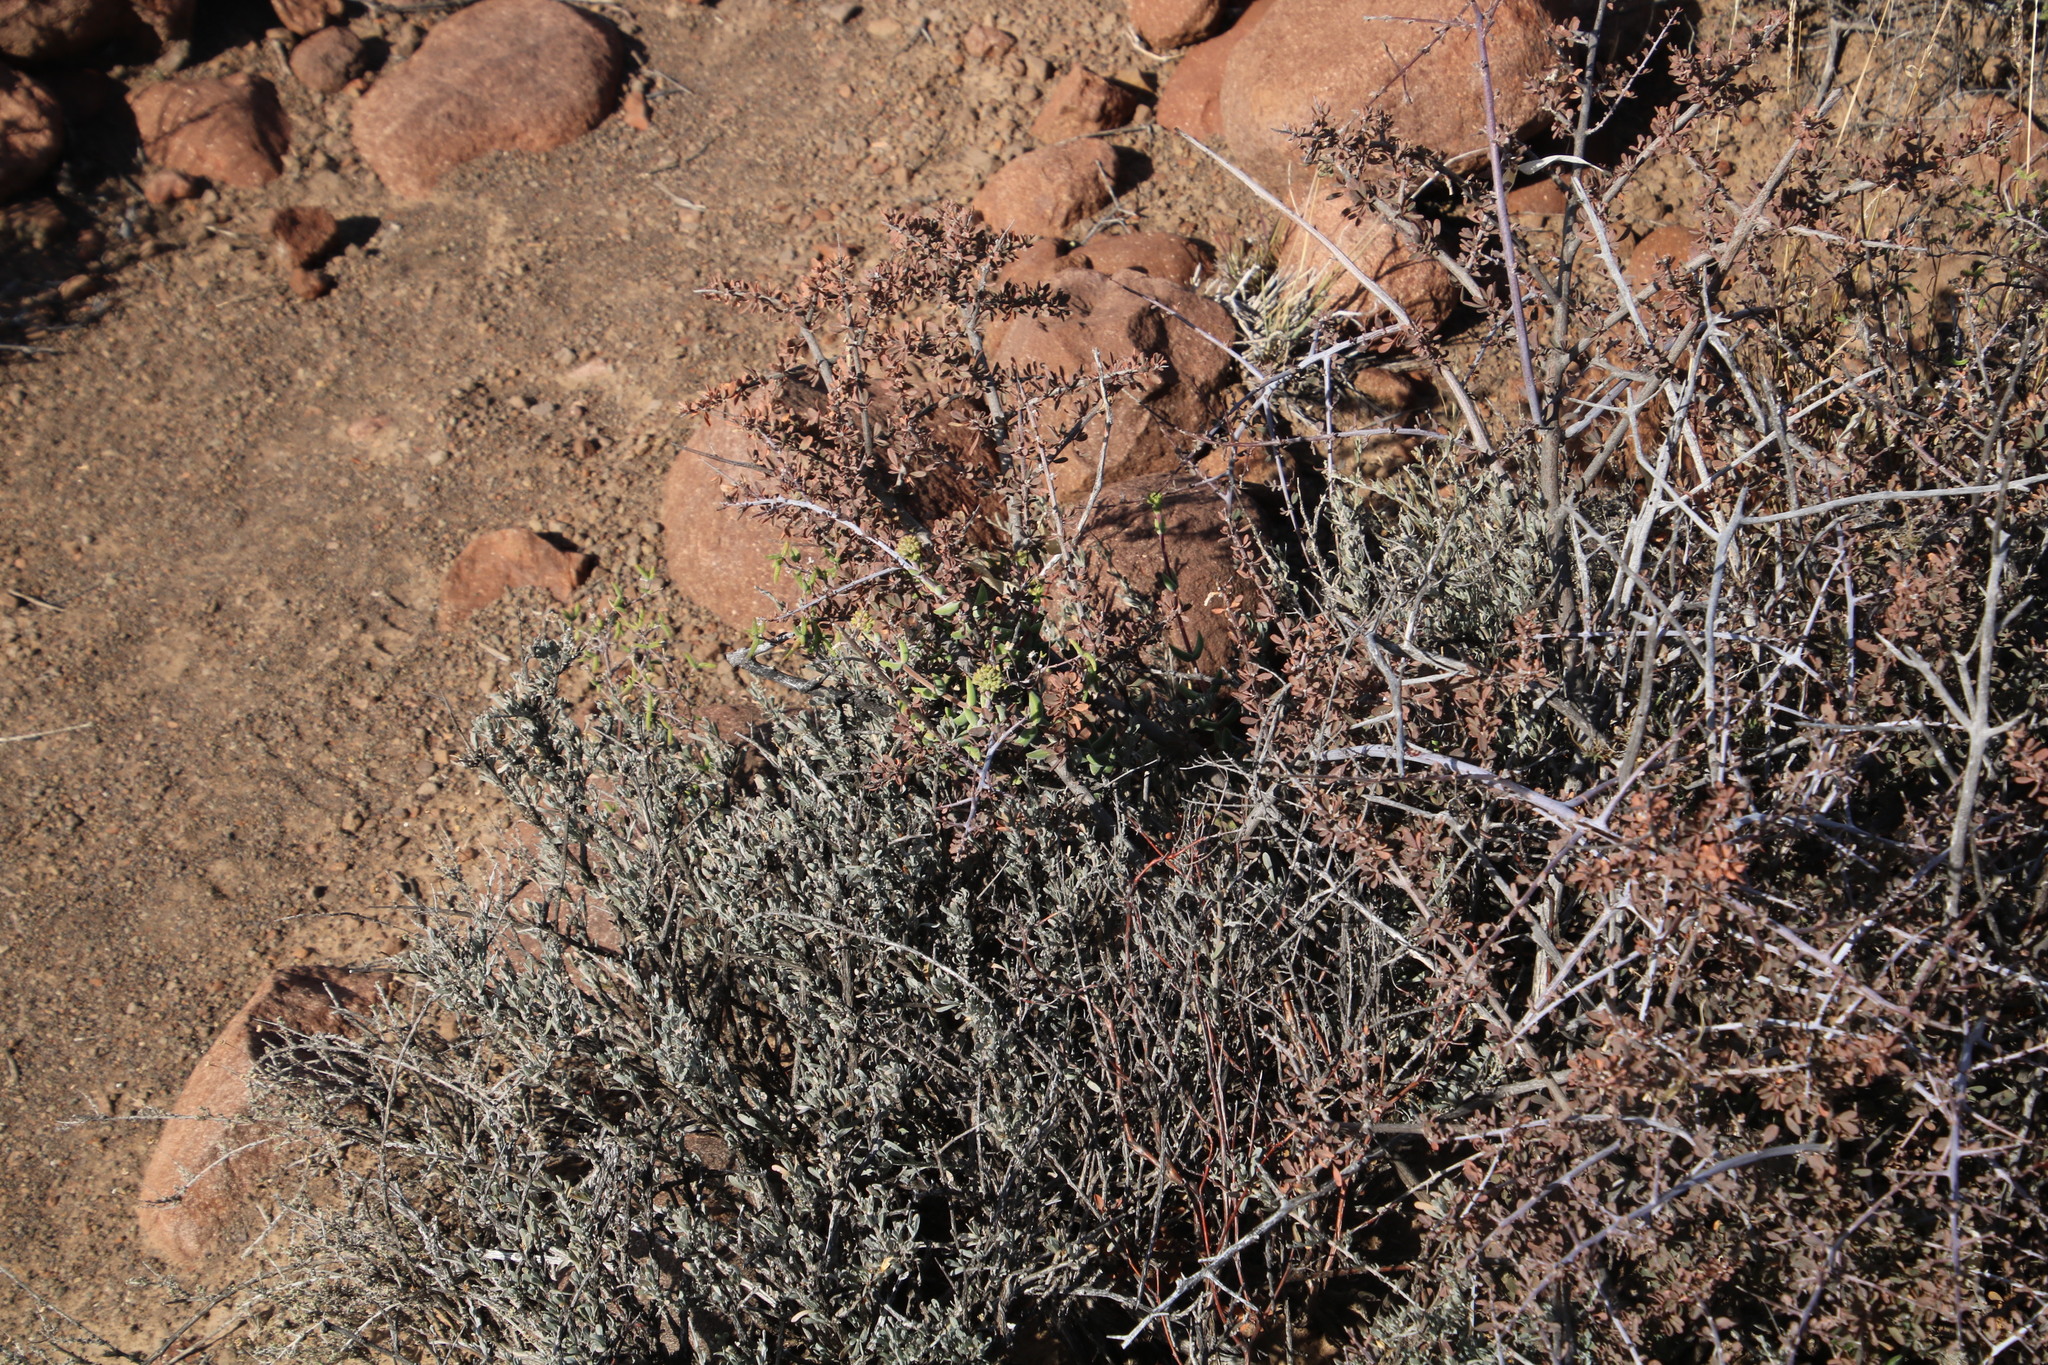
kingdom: Plantae
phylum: Tracheophyta
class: Magnoliopsida
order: Saxifragales
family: Crassulaceae
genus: Crassula
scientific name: Crassula subaphylla
